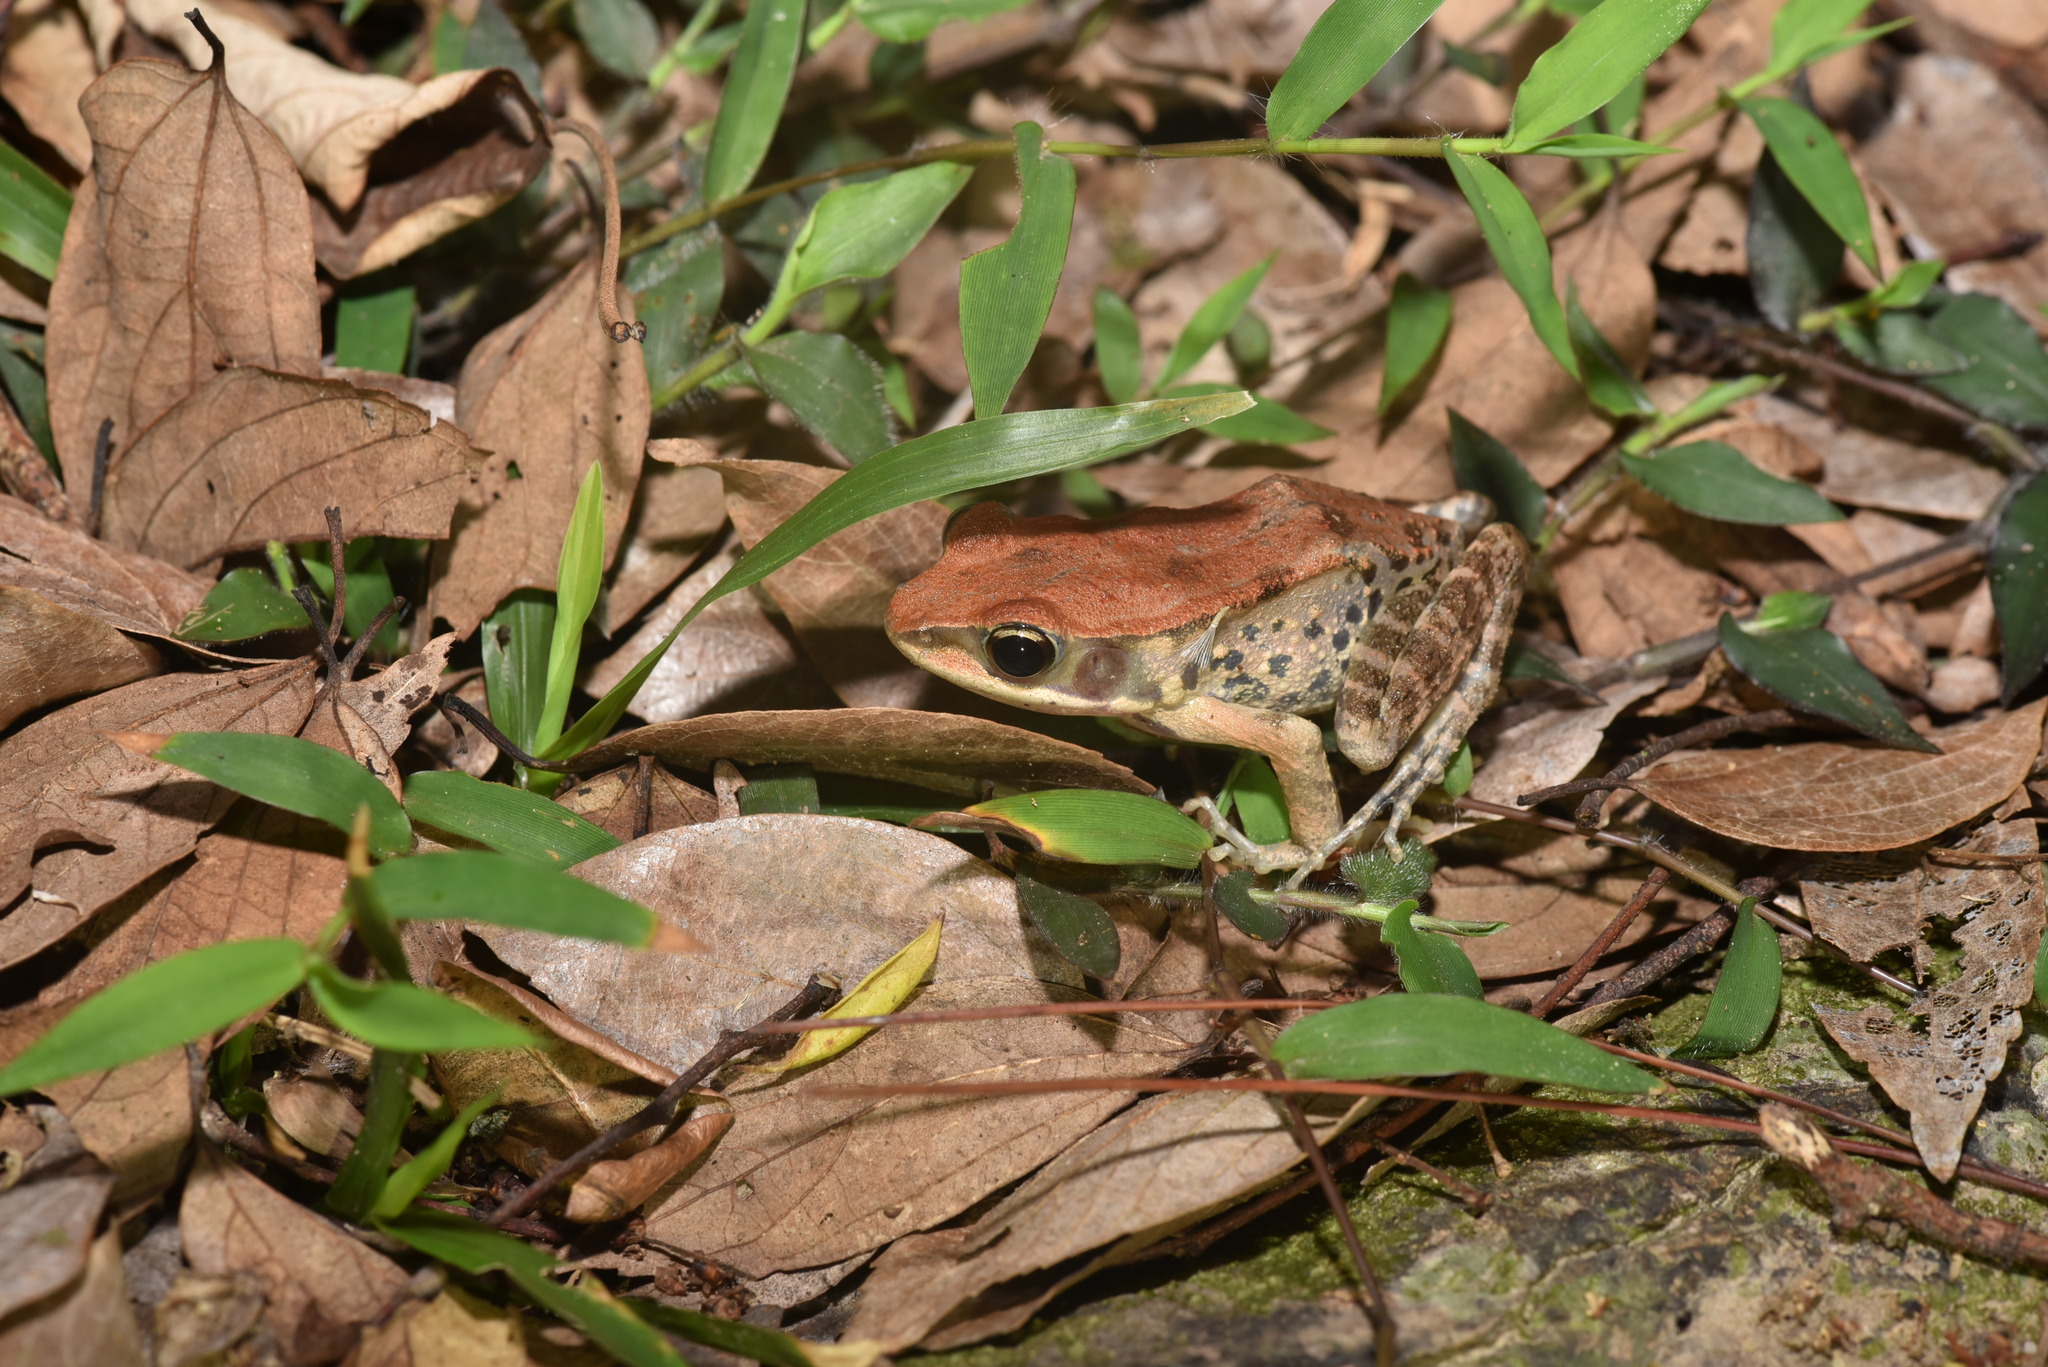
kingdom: Animalia
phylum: Chordata
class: Amphibia
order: Anura
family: Ranidae
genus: Hylarana
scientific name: Hylarana latouchii
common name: Broad-folded frog
